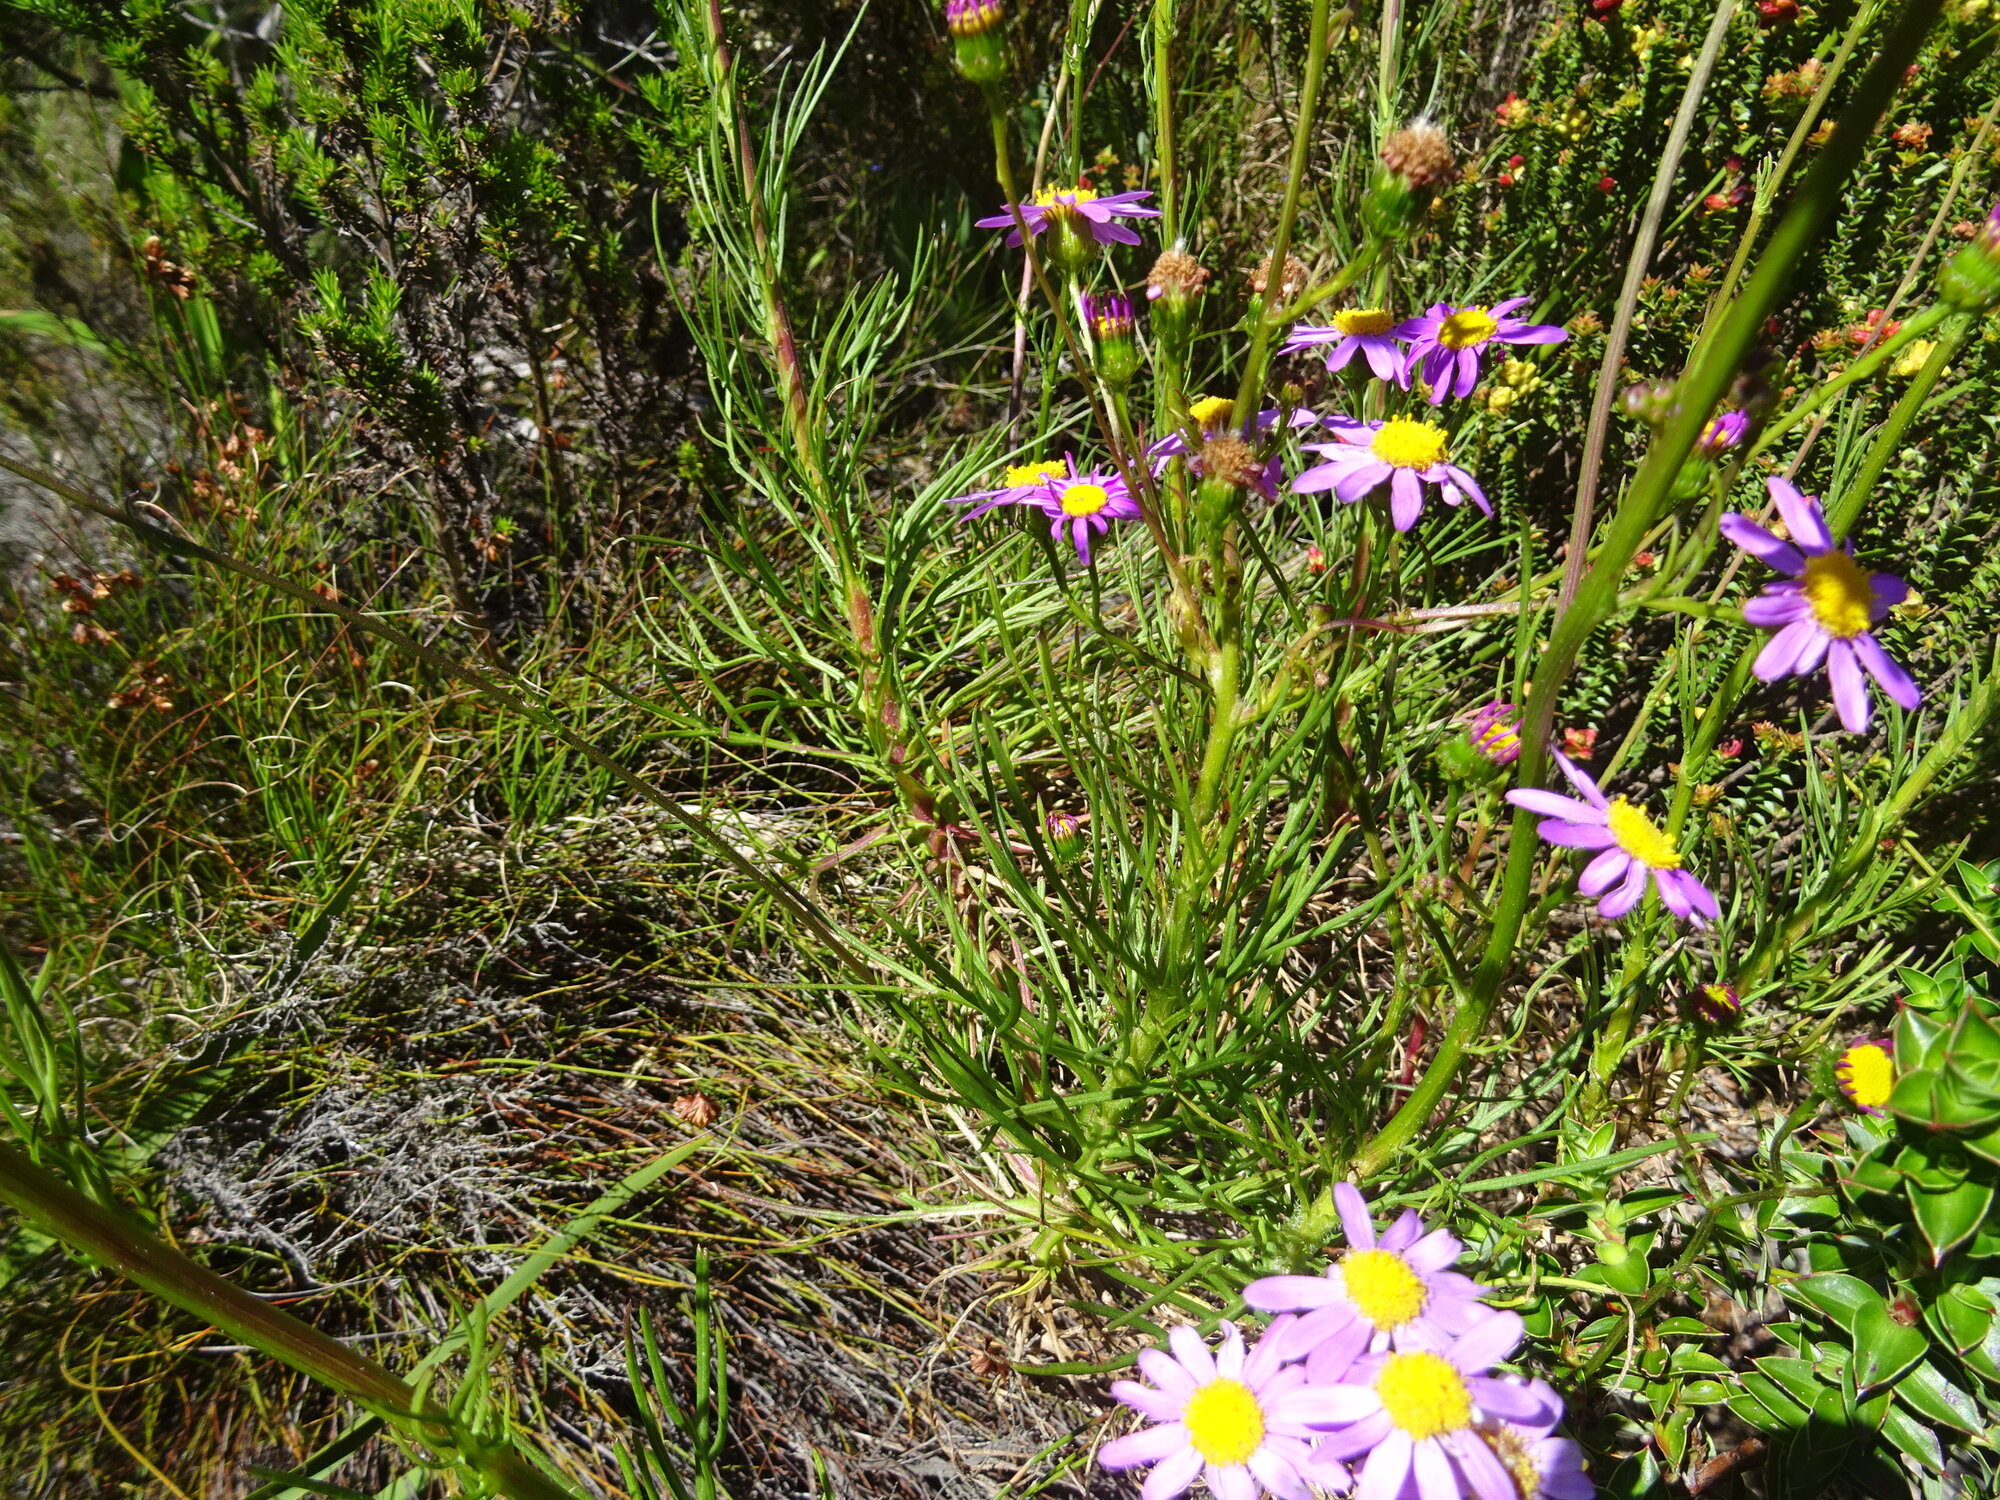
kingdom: Plantae
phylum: Tracheophyta
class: Magnoliopsida
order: Asterales
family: Asteraceae
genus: Senecio
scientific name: Senecio umbellatus
